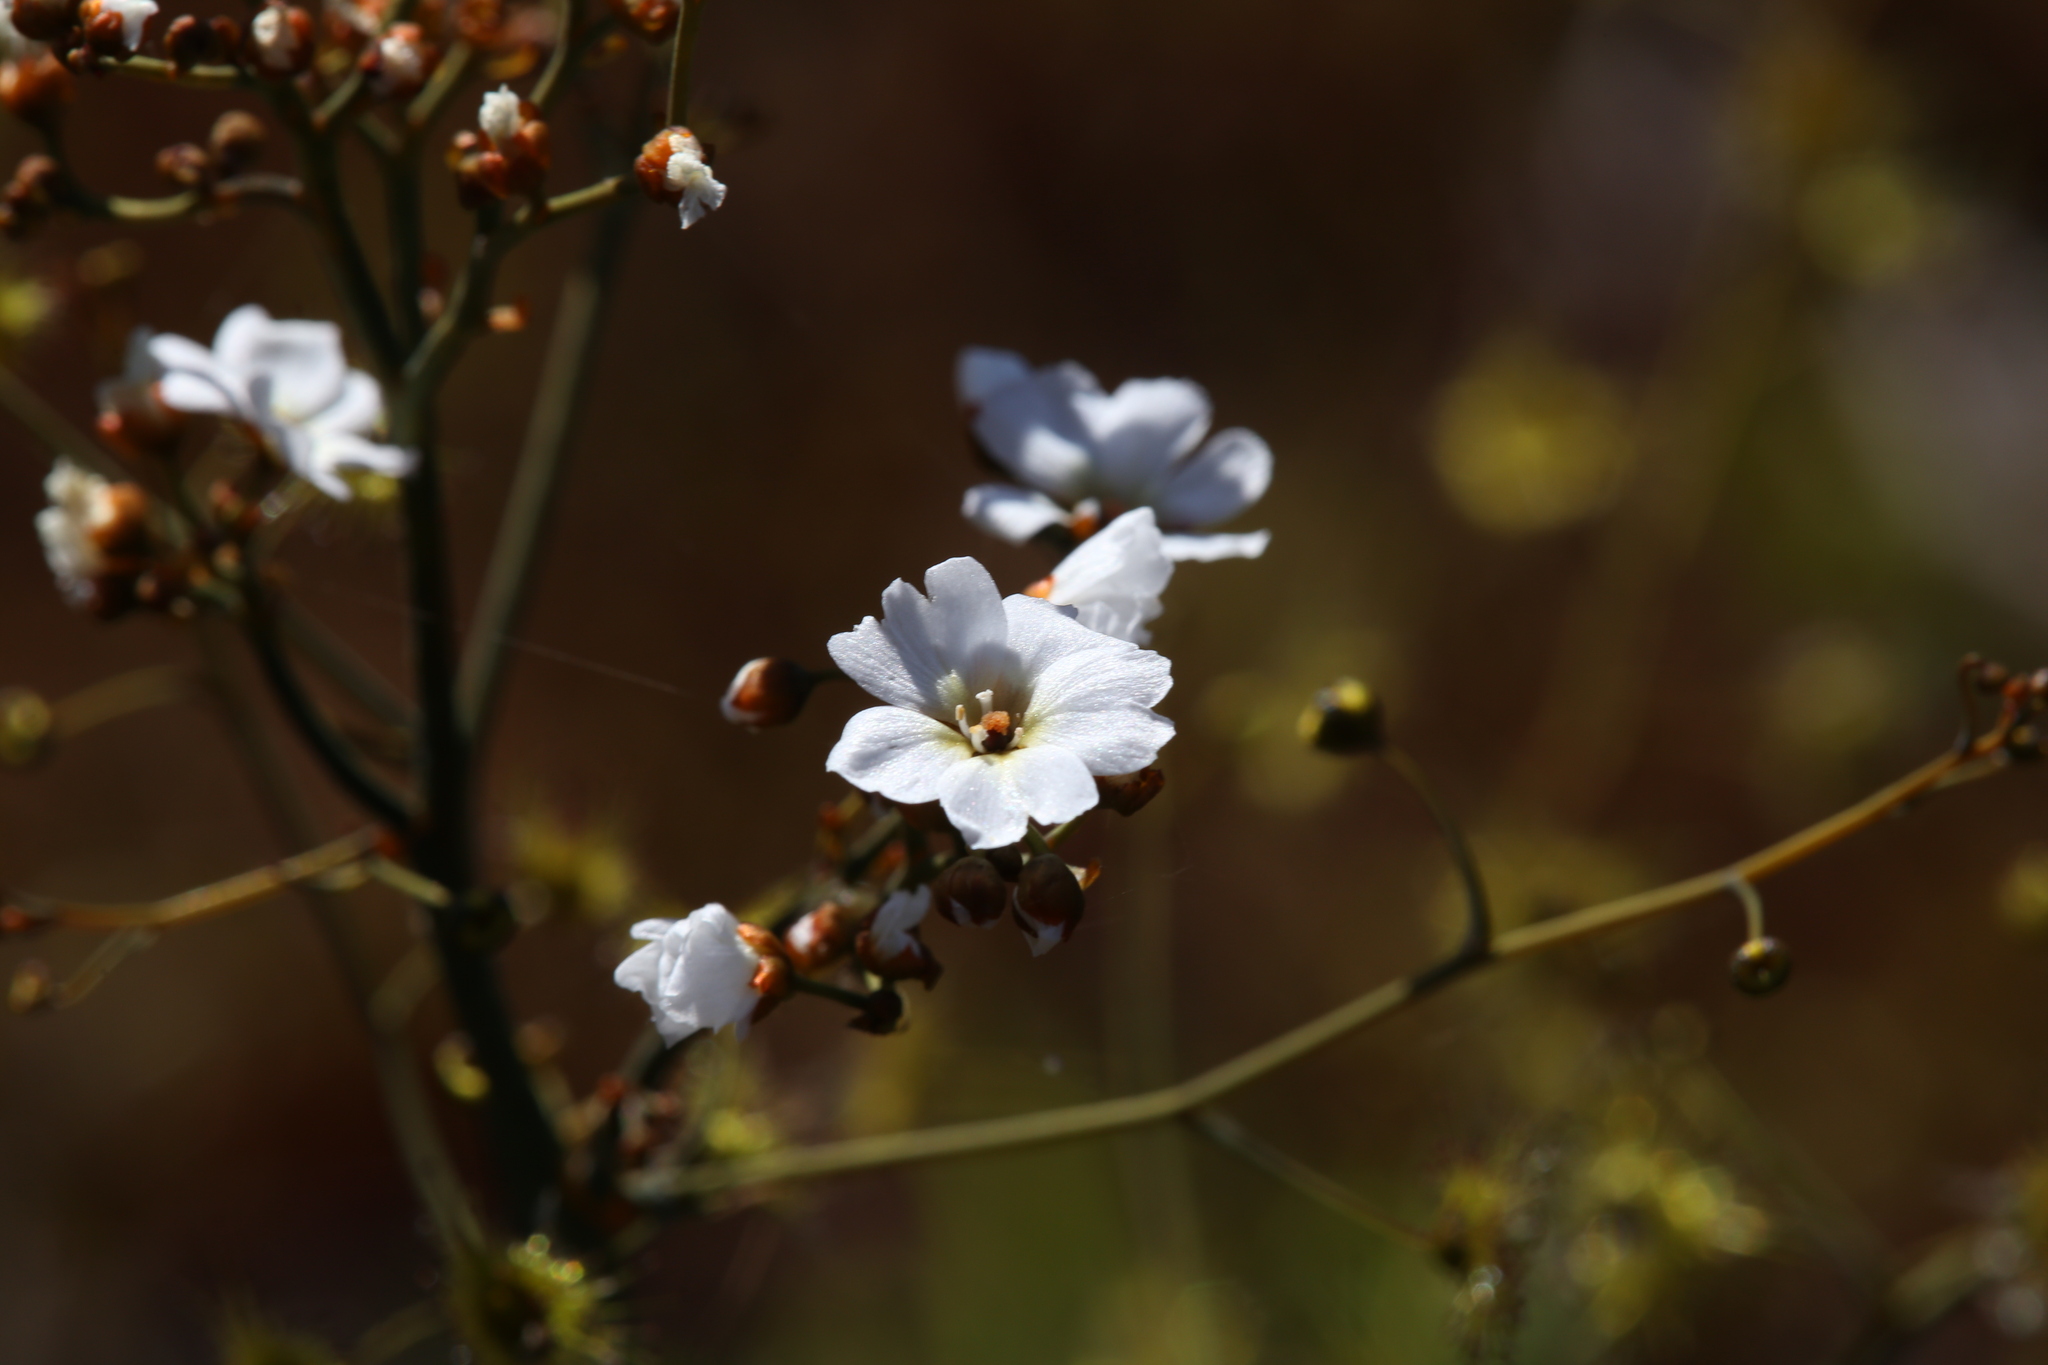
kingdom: Plantae
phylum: Tracheophyta
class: Magnoliopsida
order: Caryophyllales
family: Droseraceae
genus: Drosera
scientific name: Drosera gigantea
